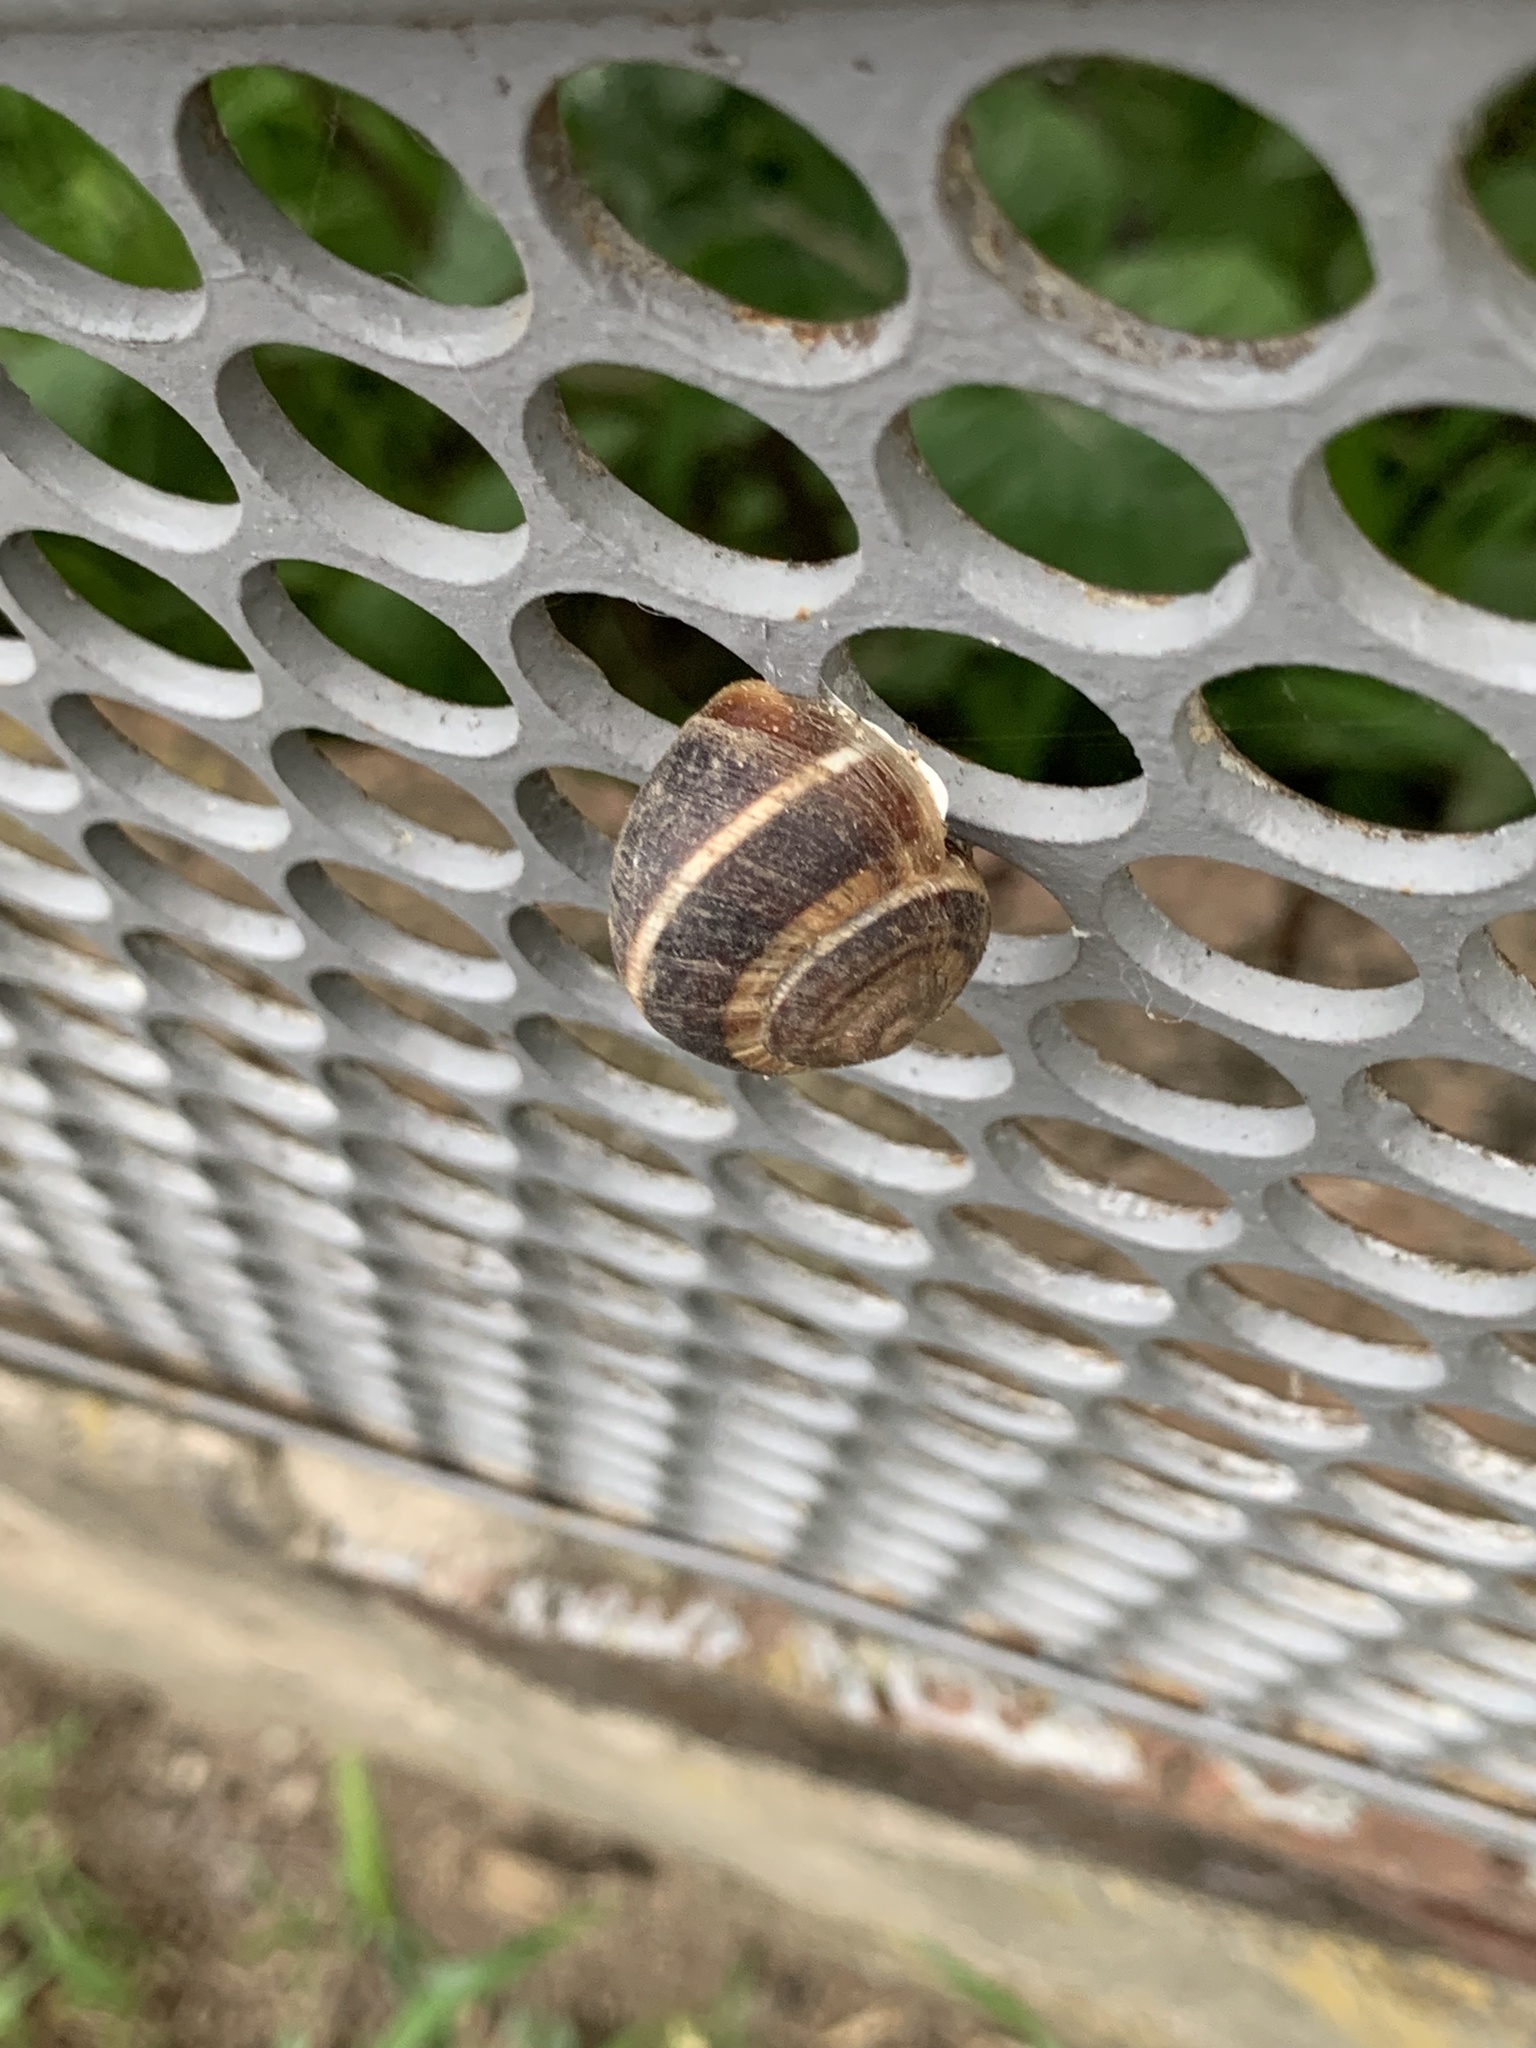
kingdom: Animalia
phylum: Mollusca
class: Gastropoda
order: Stylommatophora
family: Helicidae
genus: Helix
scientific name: Helix lucorum
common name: Turkish snail
